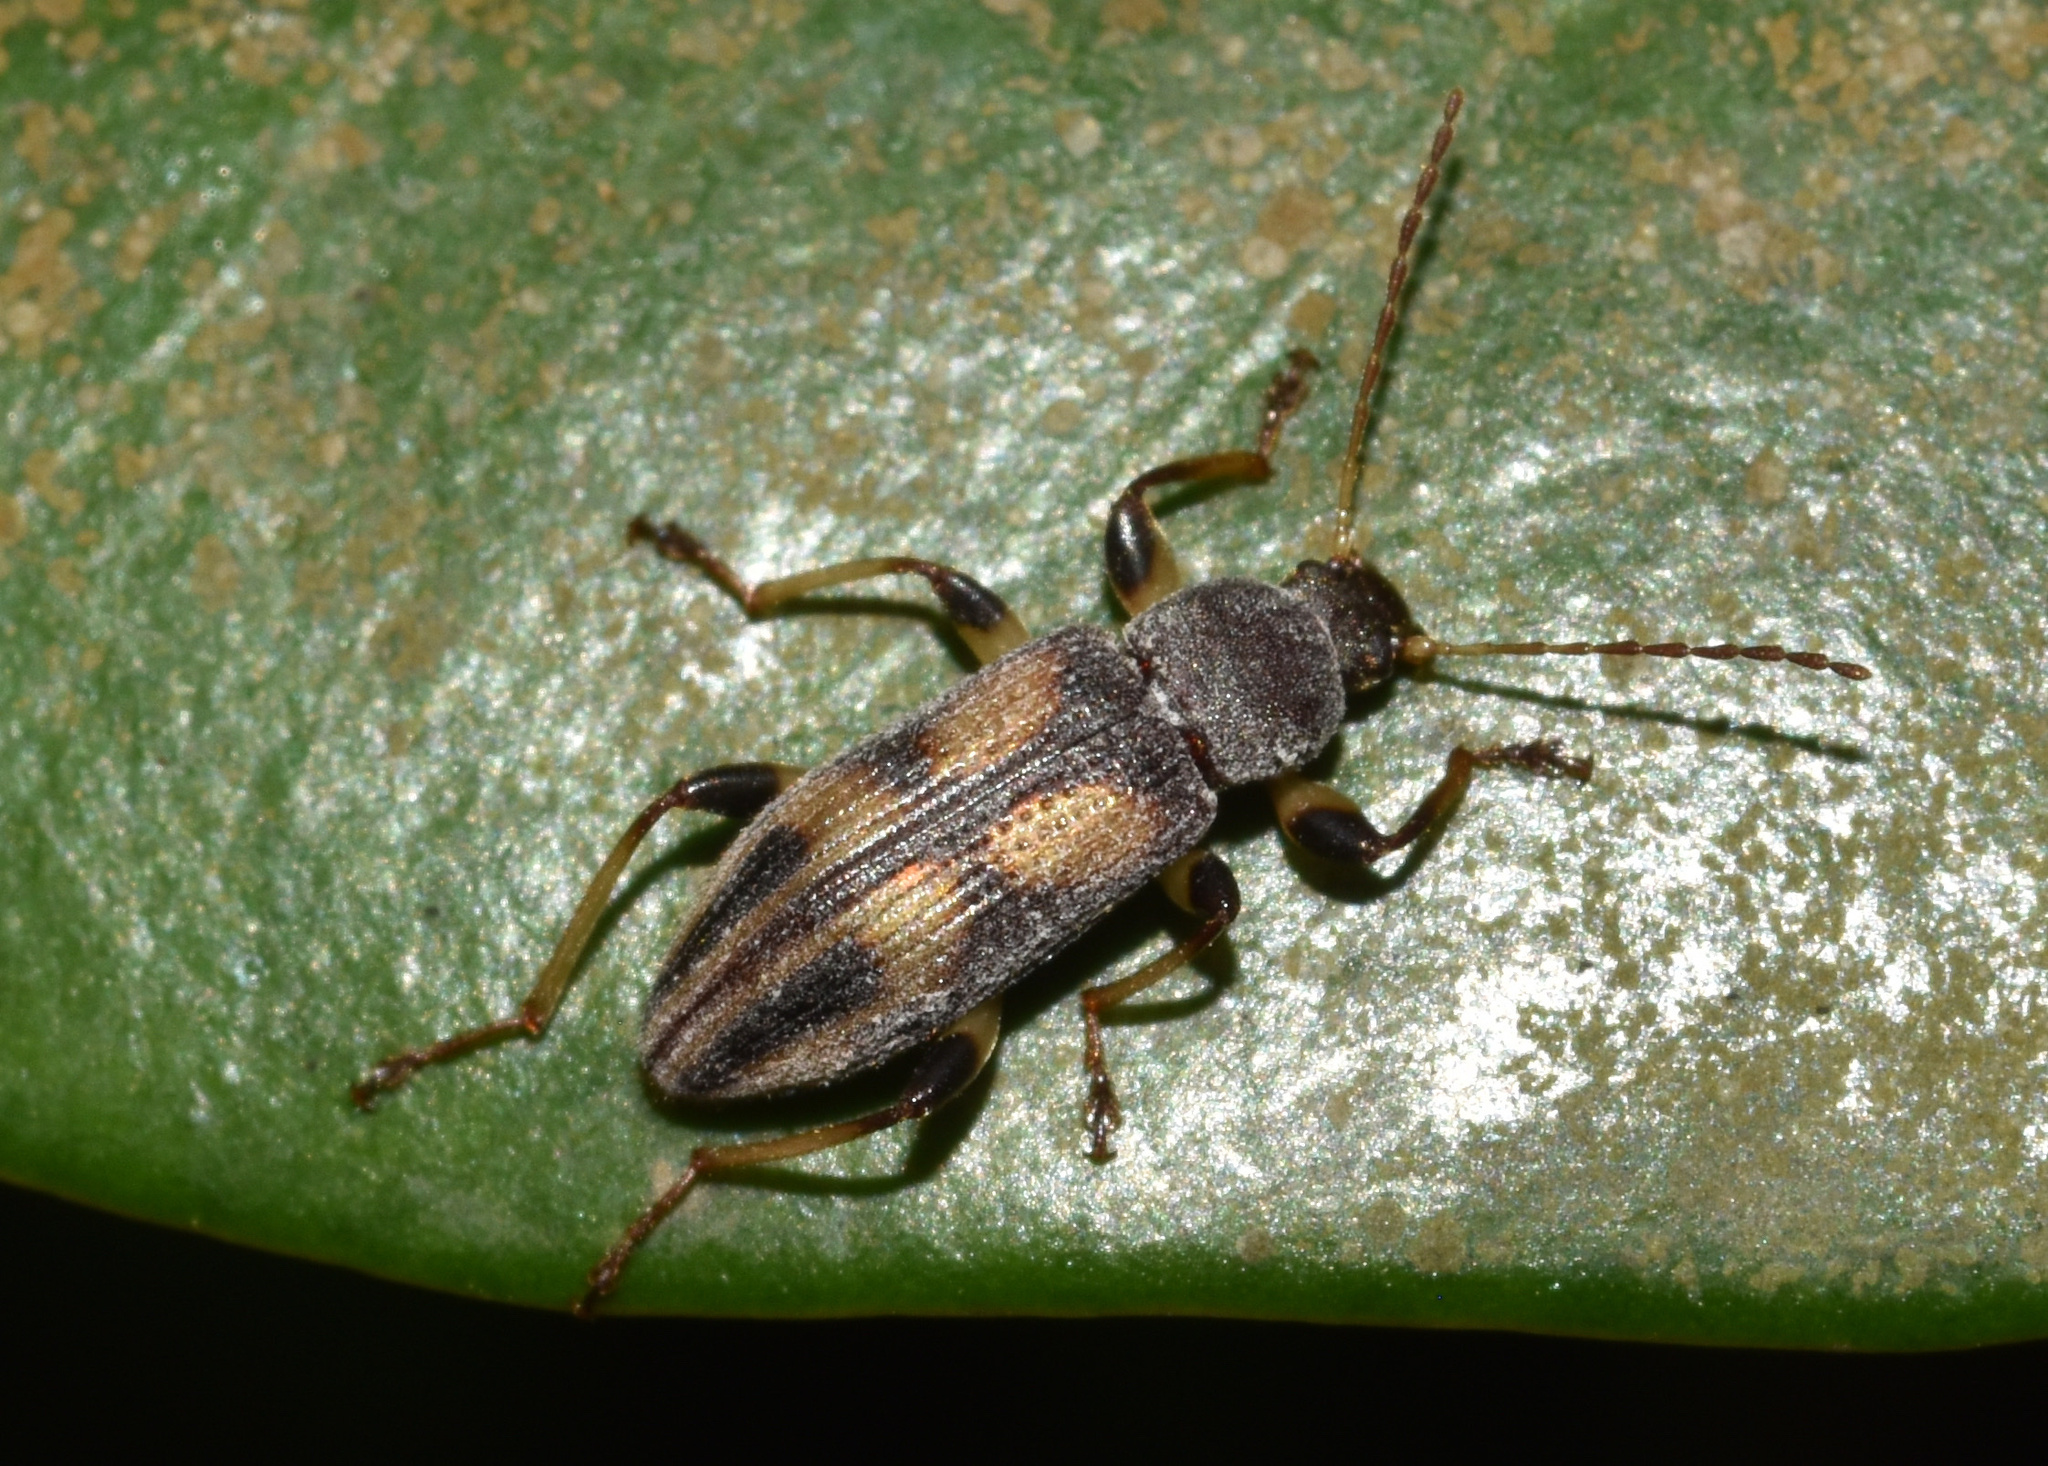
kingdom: Animalia
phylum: Arthropoda
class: Insecta
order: Coleoptera
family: Tenebrionidae
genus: Allecula
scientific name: Allecula
